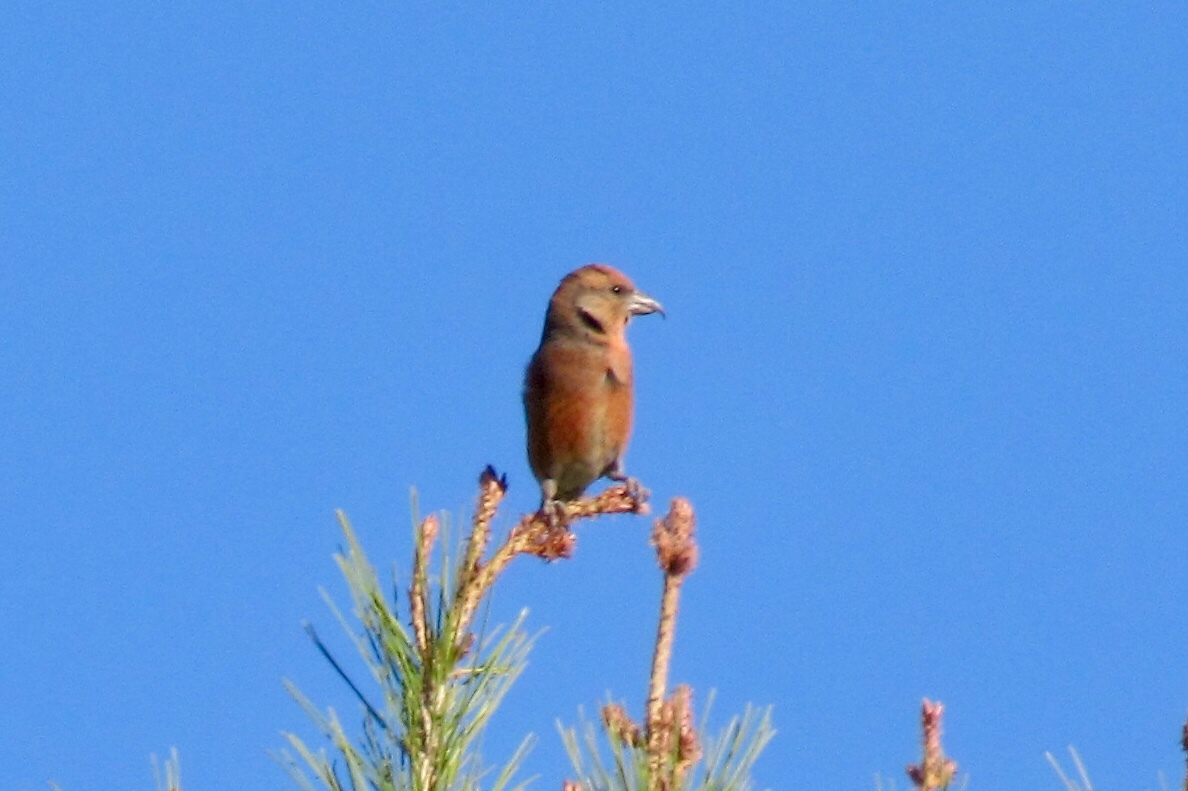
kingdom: Animalia
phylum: Chordata
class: Aves
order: Passeriformes
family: Fringillidae
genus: Loxia
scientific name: Loxia curvirostra
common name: Red crossbill
